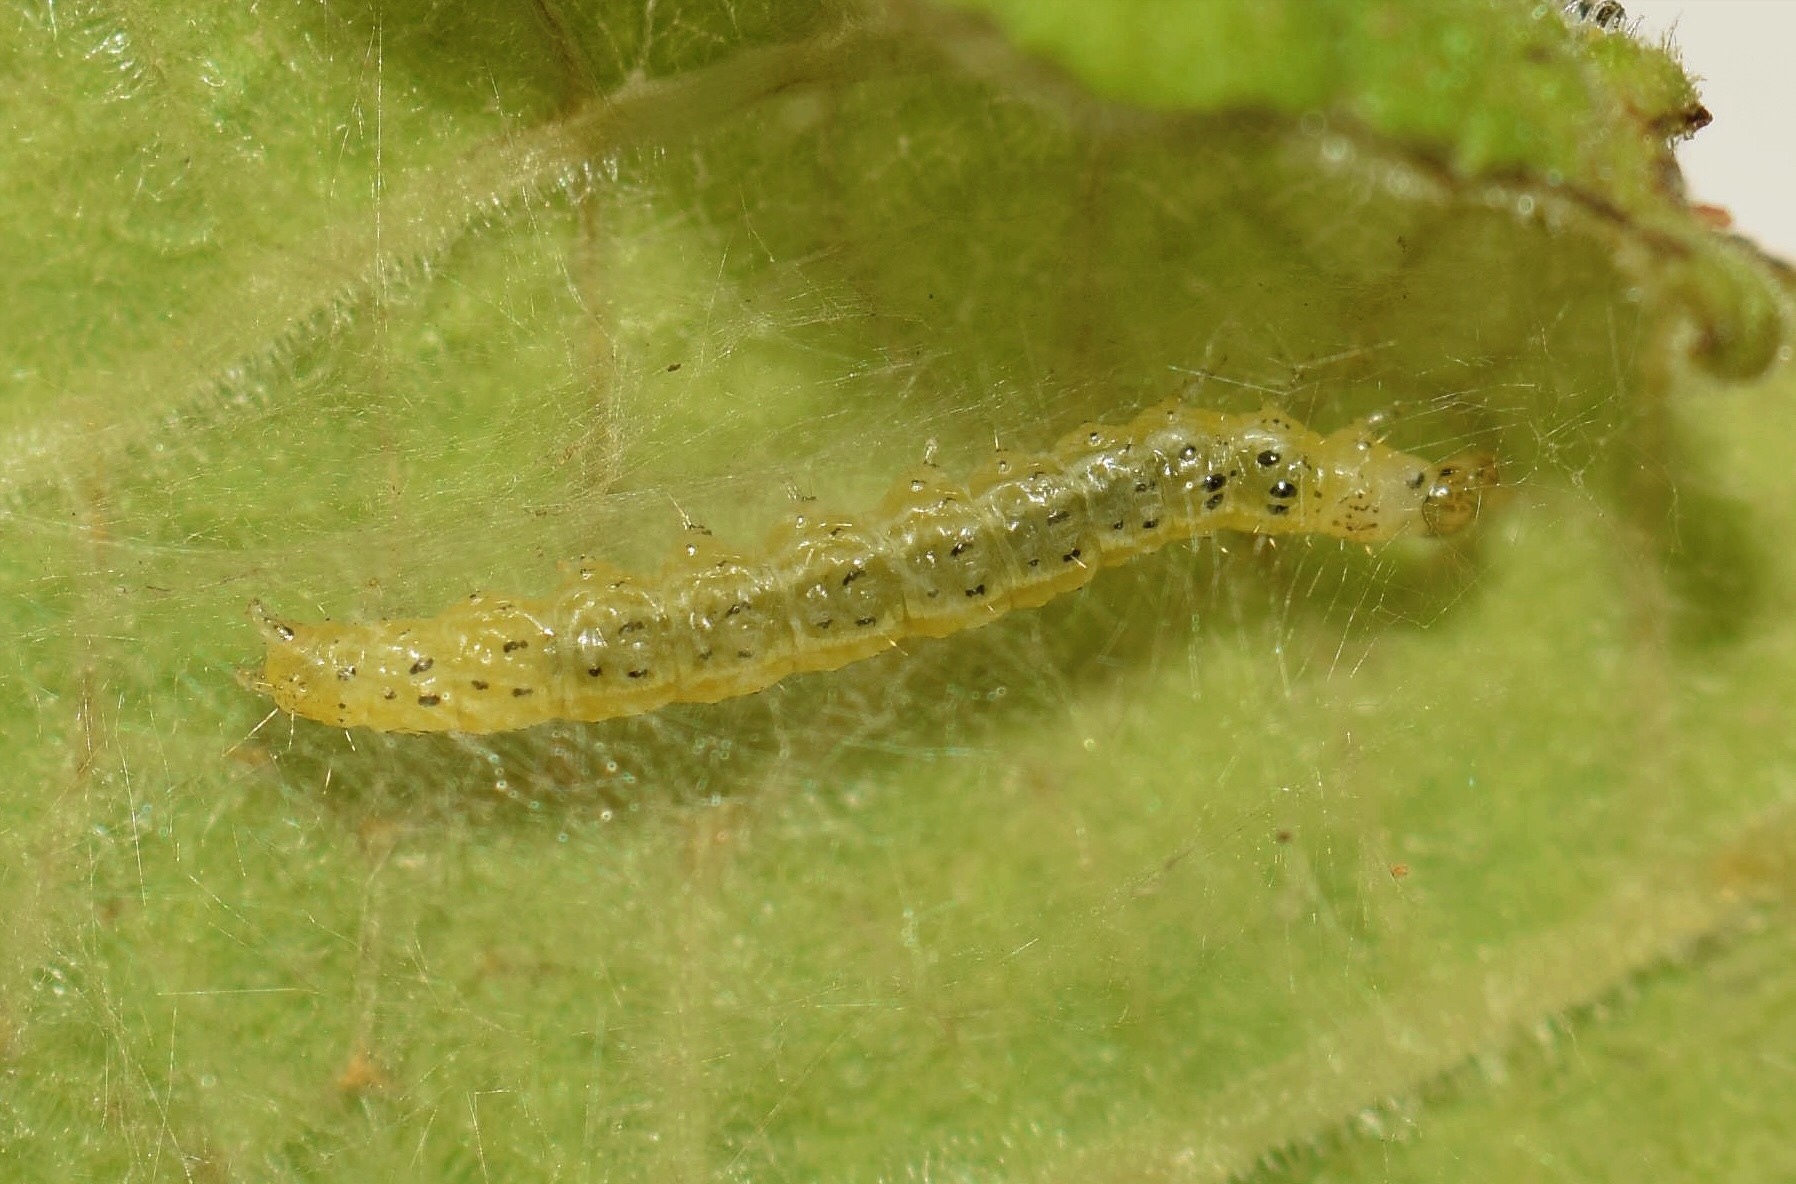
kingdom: Animalia
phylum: Arthropoda
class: Insecta
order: Lepidoptera
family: Crambidae
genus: Pyrausta
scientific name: Pyrausta phoenicealis
